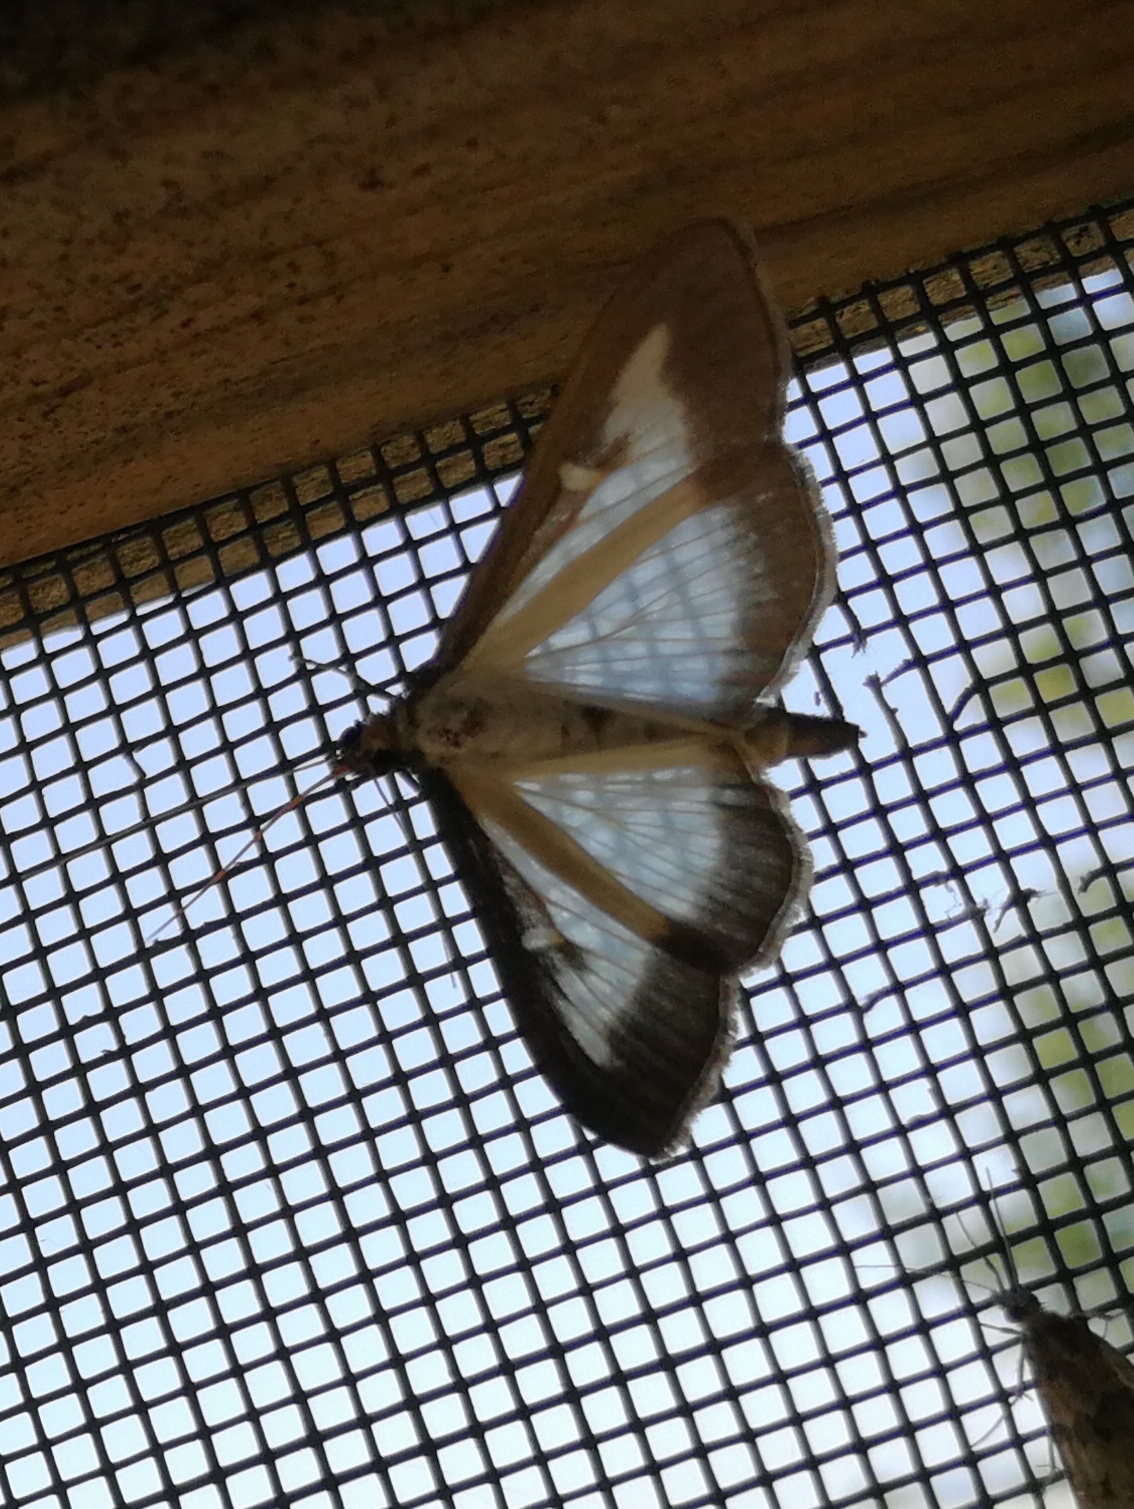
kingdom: Animalia
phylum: Arthropoda
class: Insecta
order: Lepidoptera
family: Crambidae
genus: Cydalima
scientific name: Cydalima perspectalis
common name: Box tree moth
